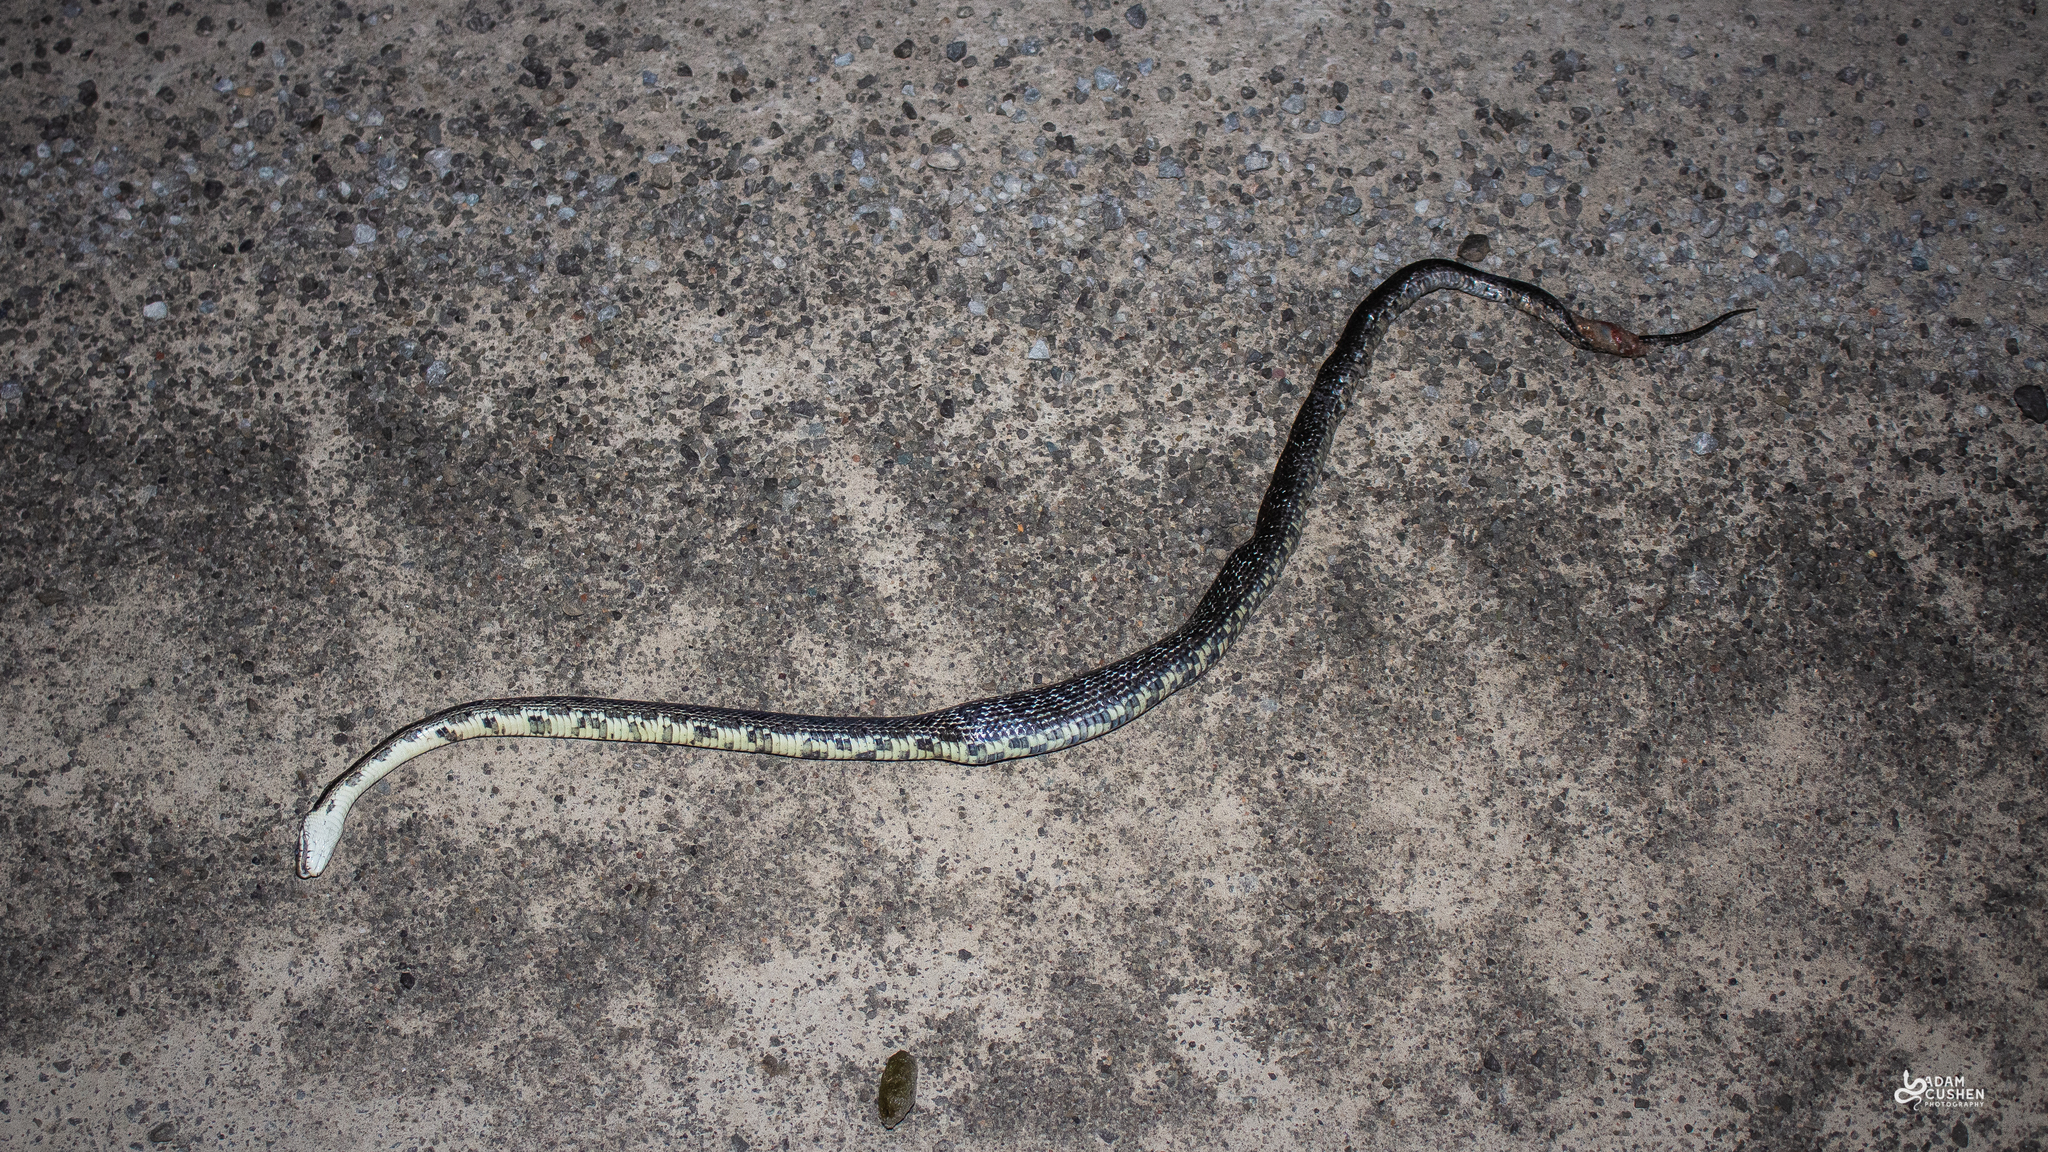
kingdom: Animalia
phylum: Chordata
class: Squamata
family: Colubridae
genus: Pantherophis
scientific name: Pantherophis spiloides
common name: Gray rat snake
